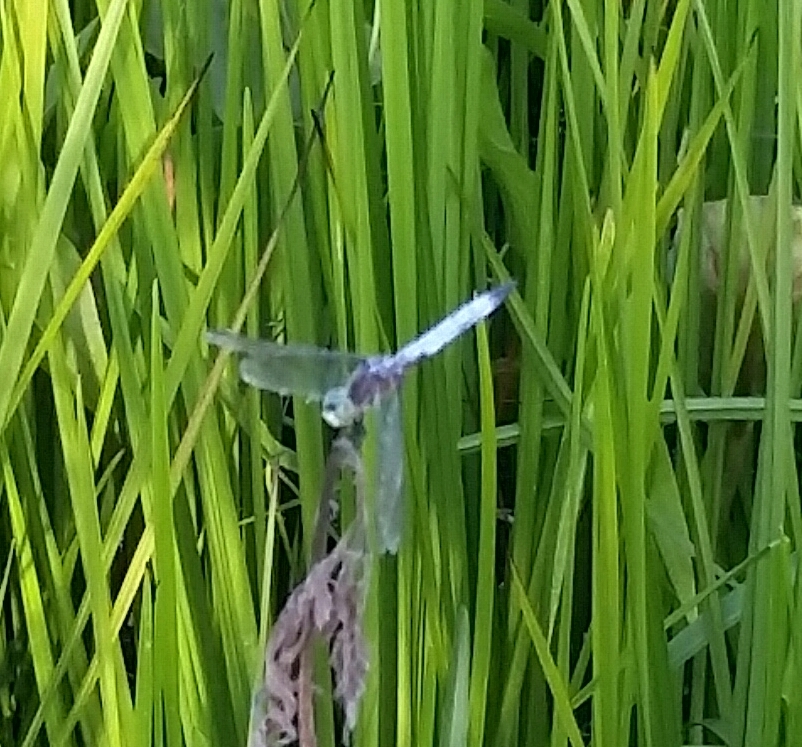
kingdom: Animalia
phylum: Arthropoda
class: Insecta
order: Odonata
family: Libellulidae
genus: Pachydiplax
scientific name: Pachydiplax longipennis
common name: Blue dasher
